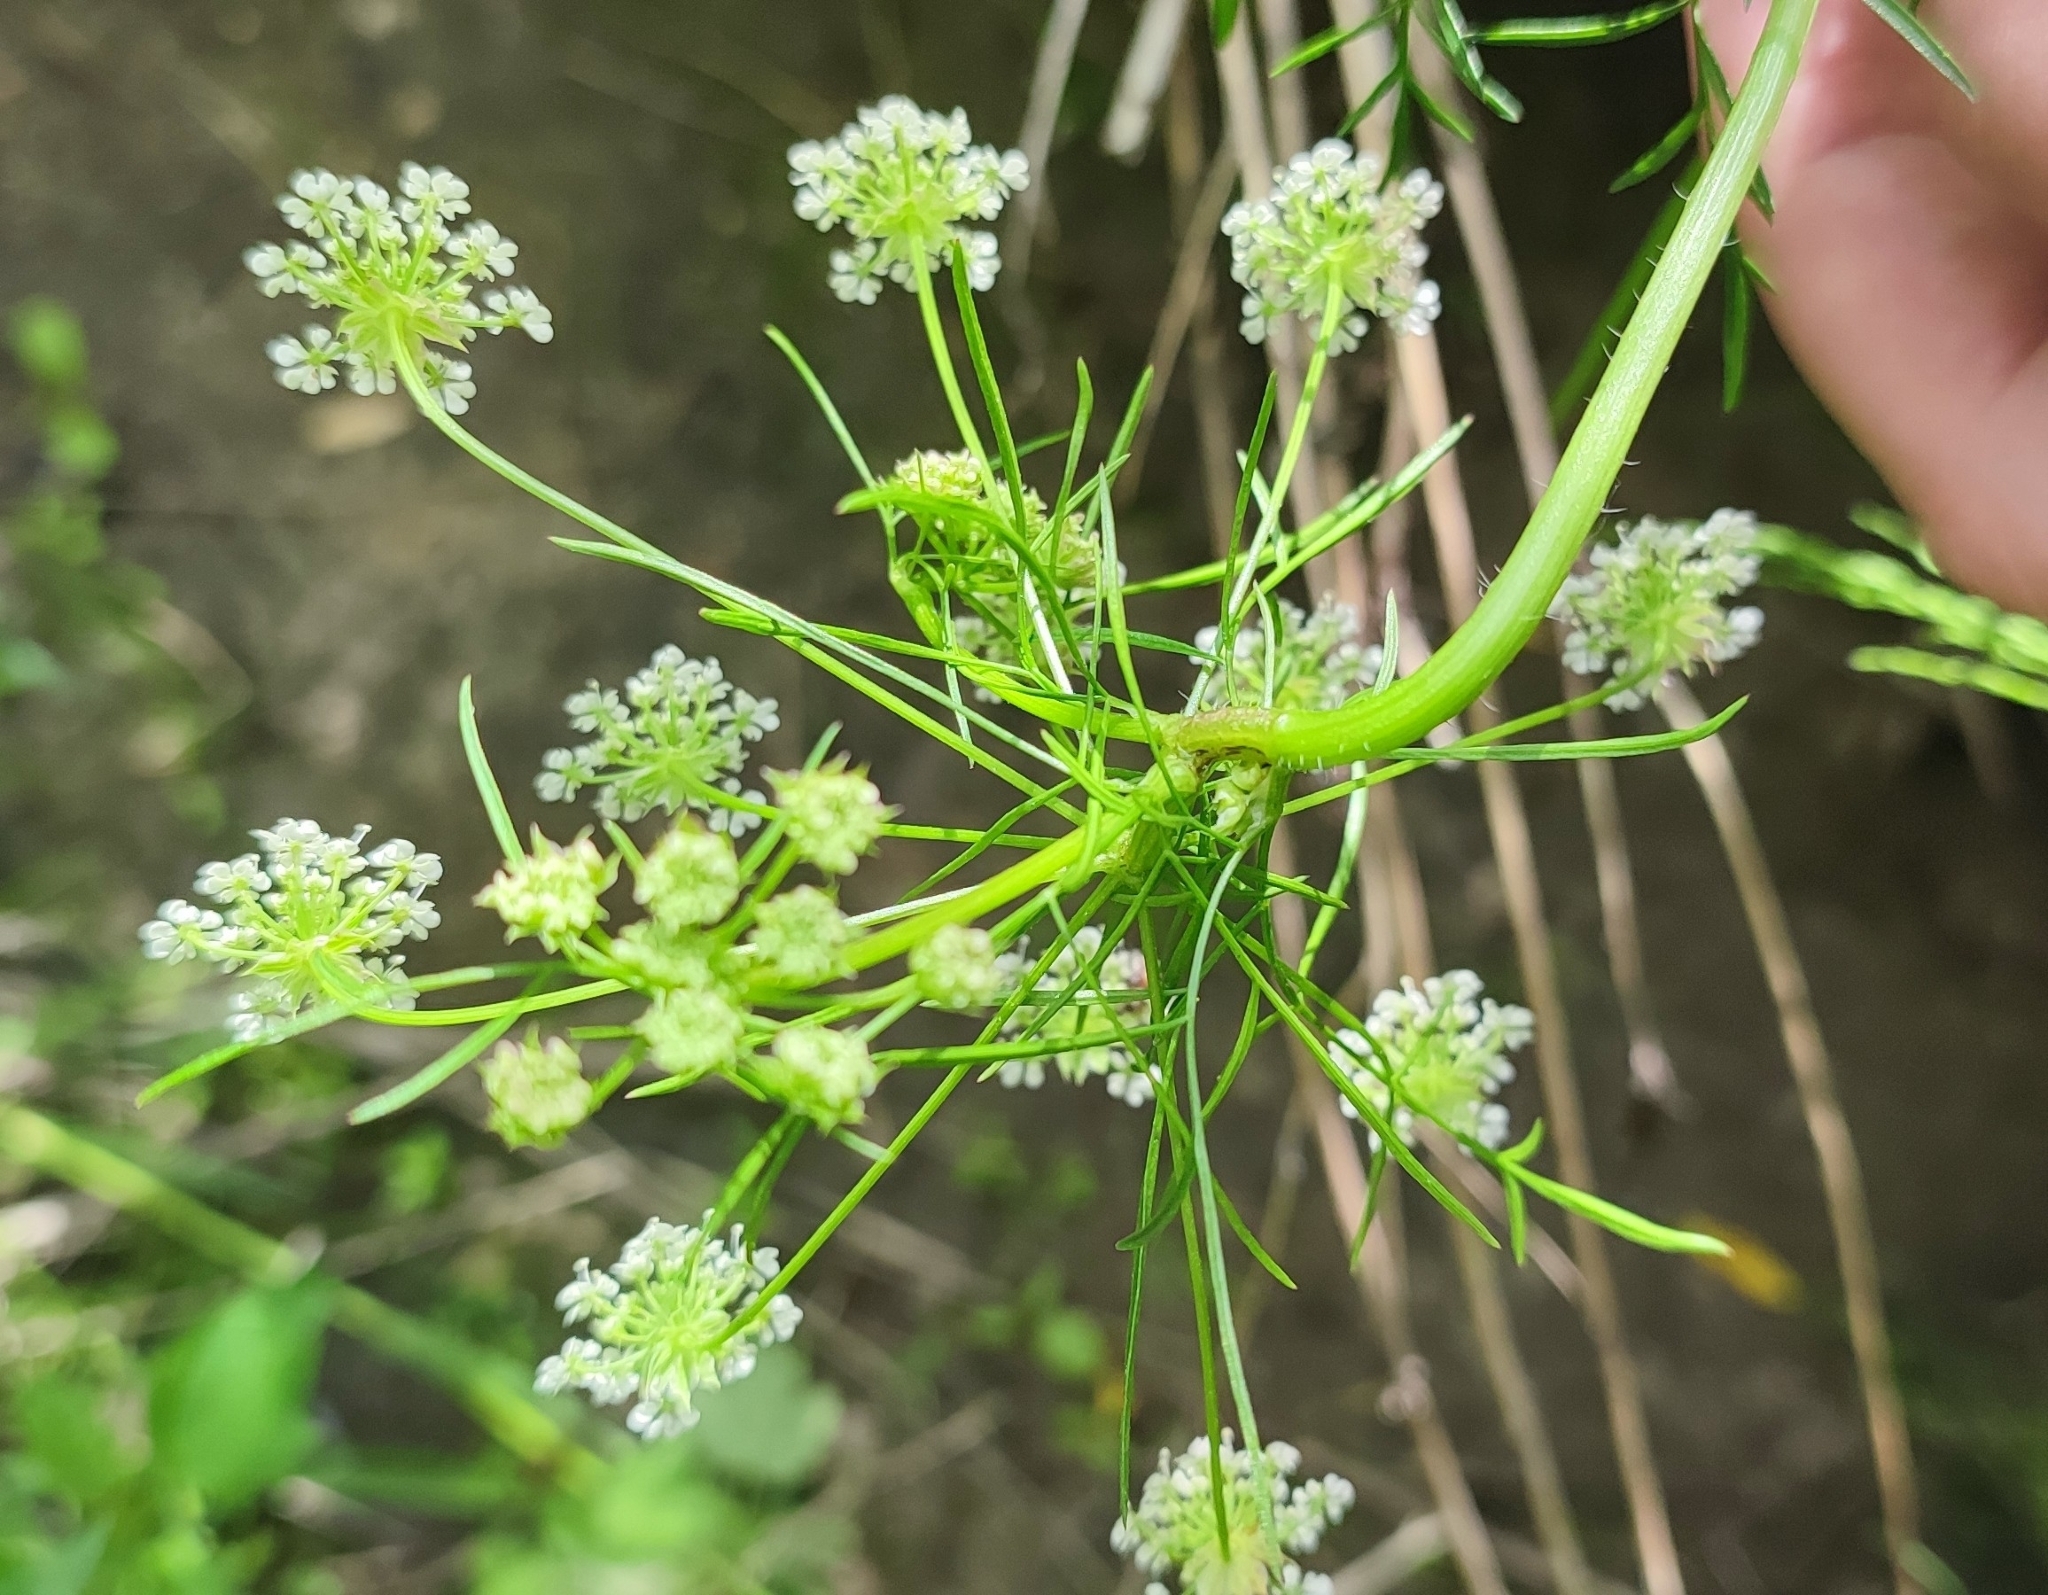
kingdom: Plantae
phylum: Tracheophyta
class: Magnoliopsida
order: Apiales
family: Apiaceae
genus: Chaerophyllum
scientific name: Chaerophyllum prescottii
